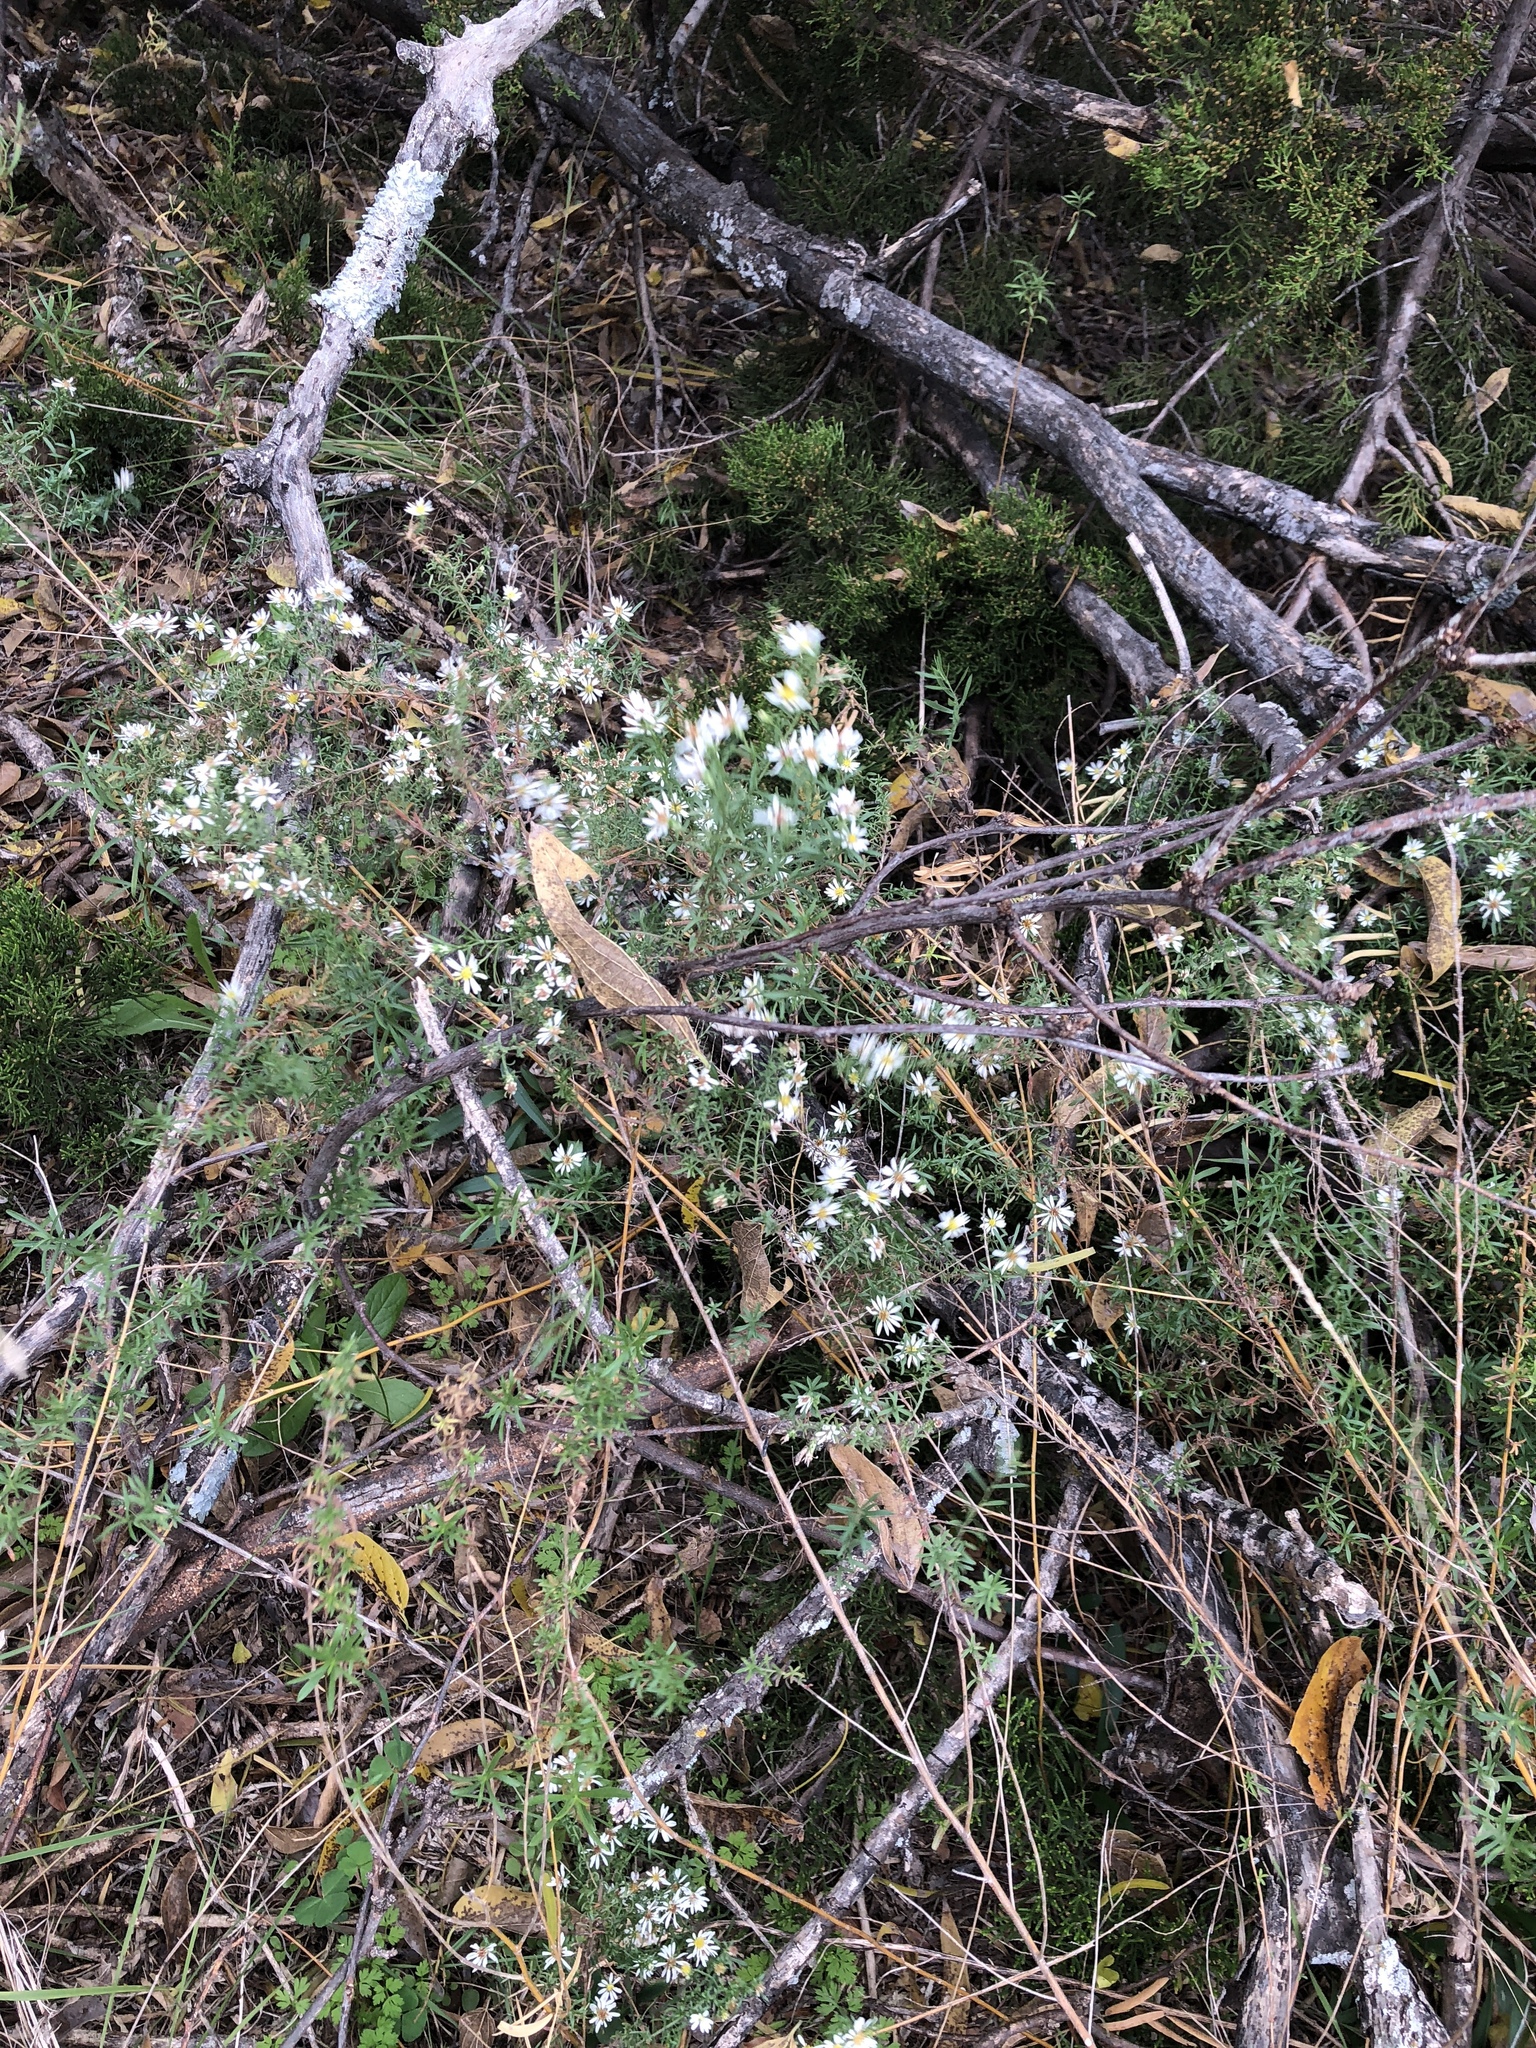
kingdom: Plantae
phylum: Tracheophyta
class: Magnoliopsida
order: Asterales
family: Asteraceae
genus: Symphyotrichum
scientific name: Symphyotrichum ericoides
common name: Heath aster
